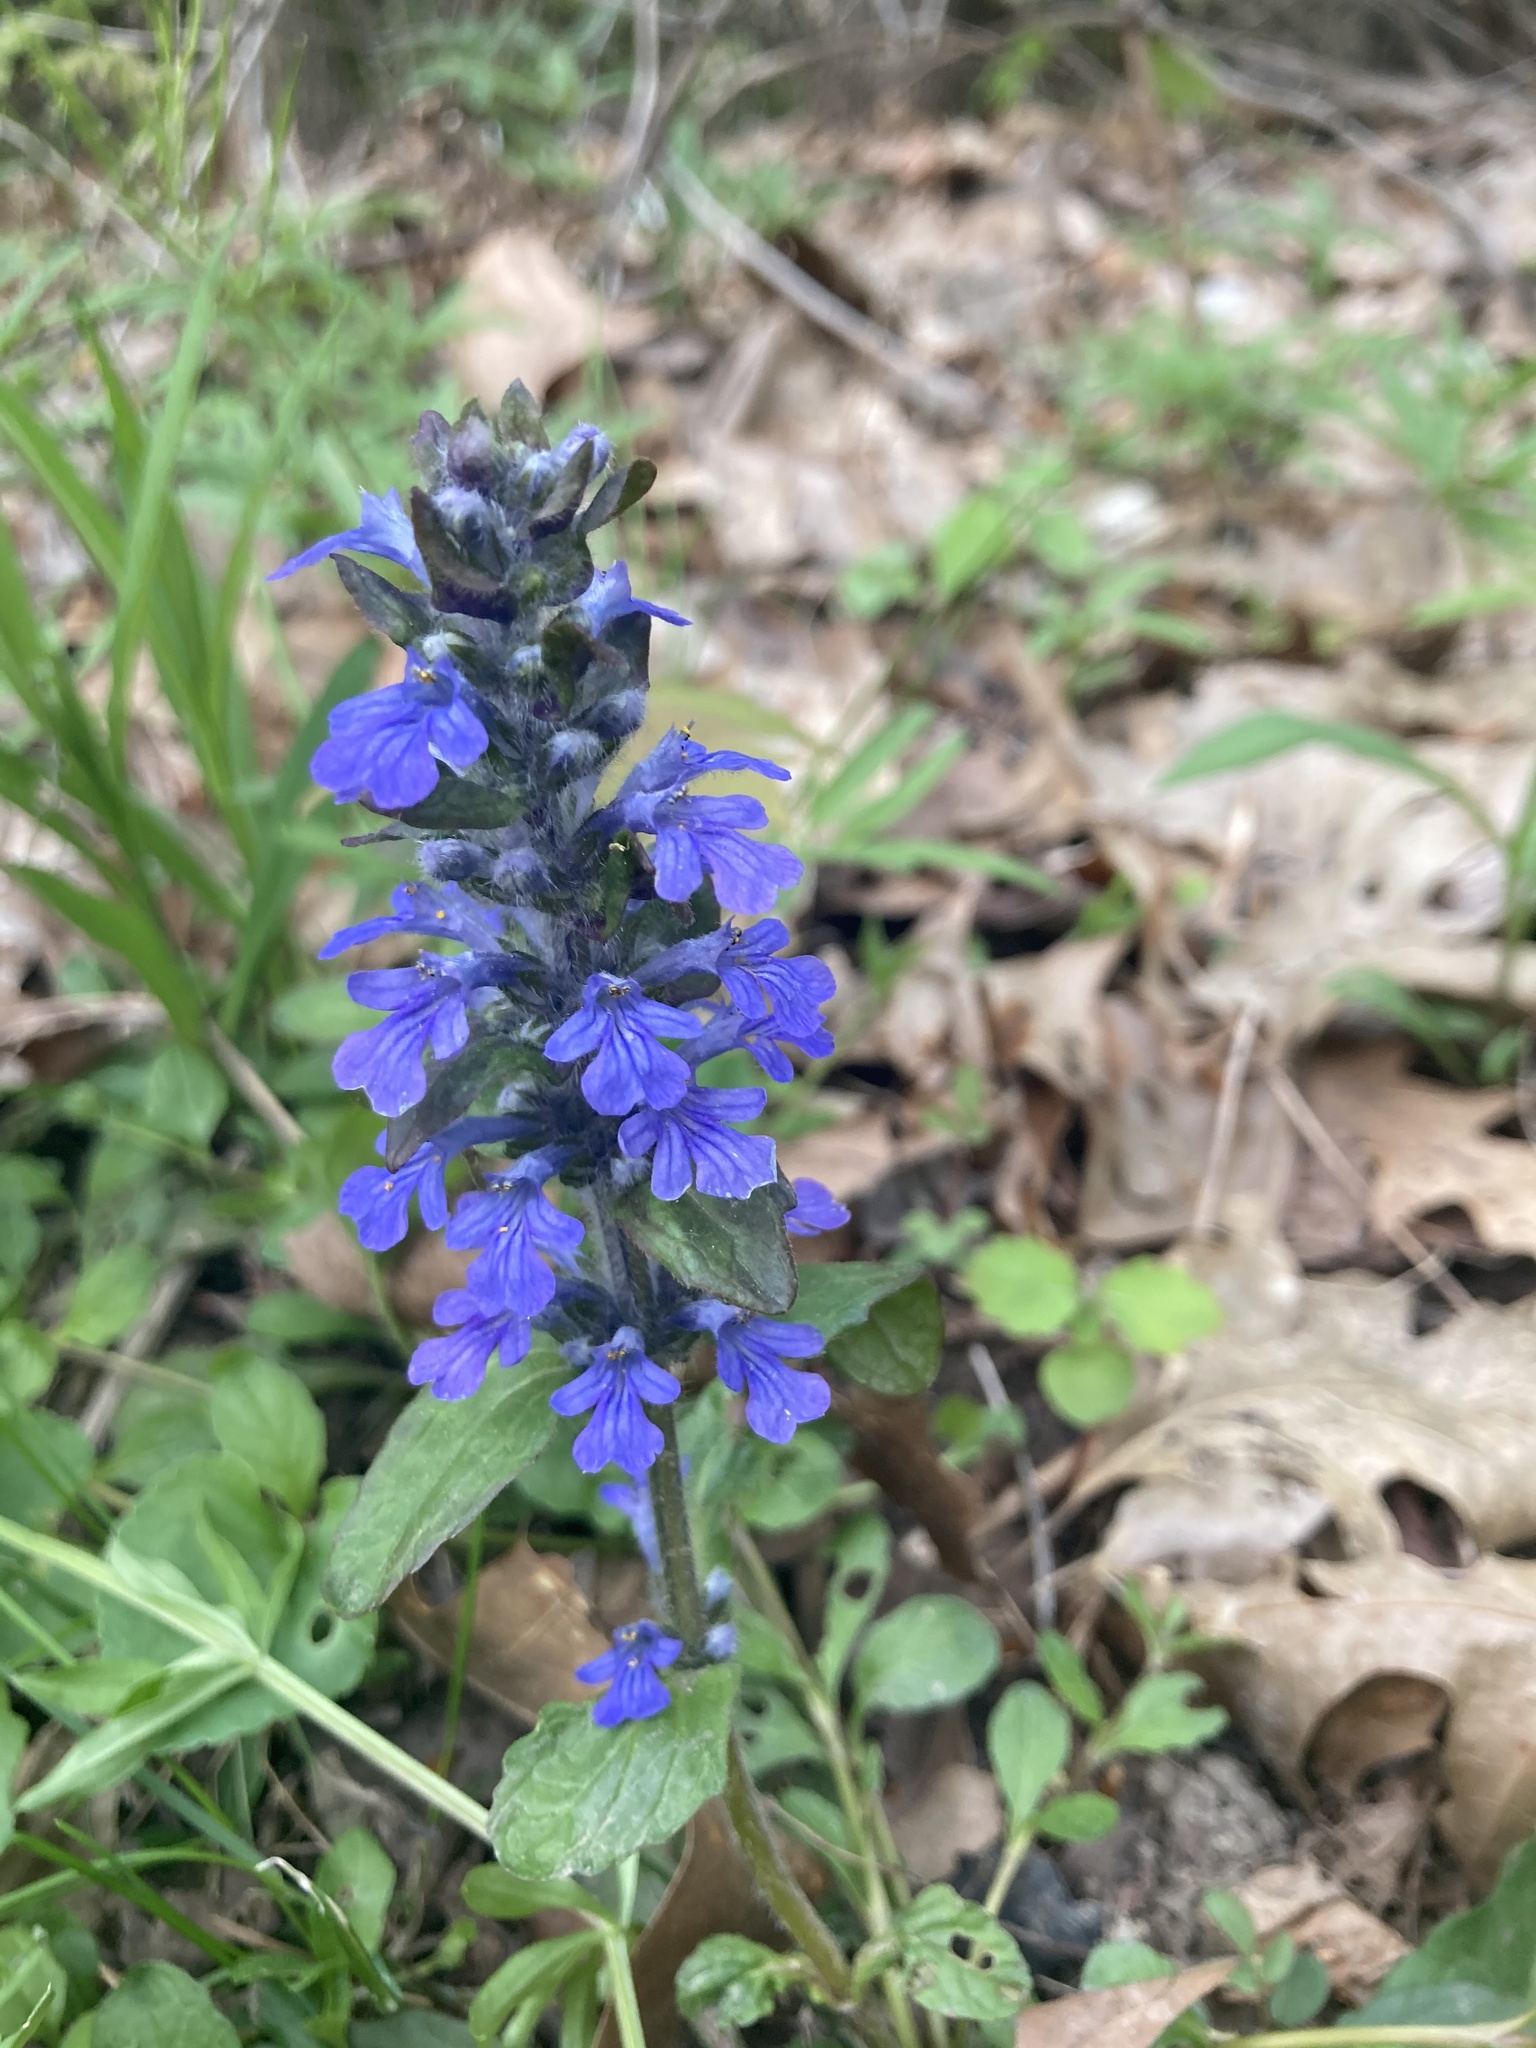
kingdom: Plantae
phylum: Tracheophyta
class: Magnoliopsida
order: Lamiales
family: Lamiaceae
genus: Ajuga
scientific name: Ajuga reptans
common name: Bugle
